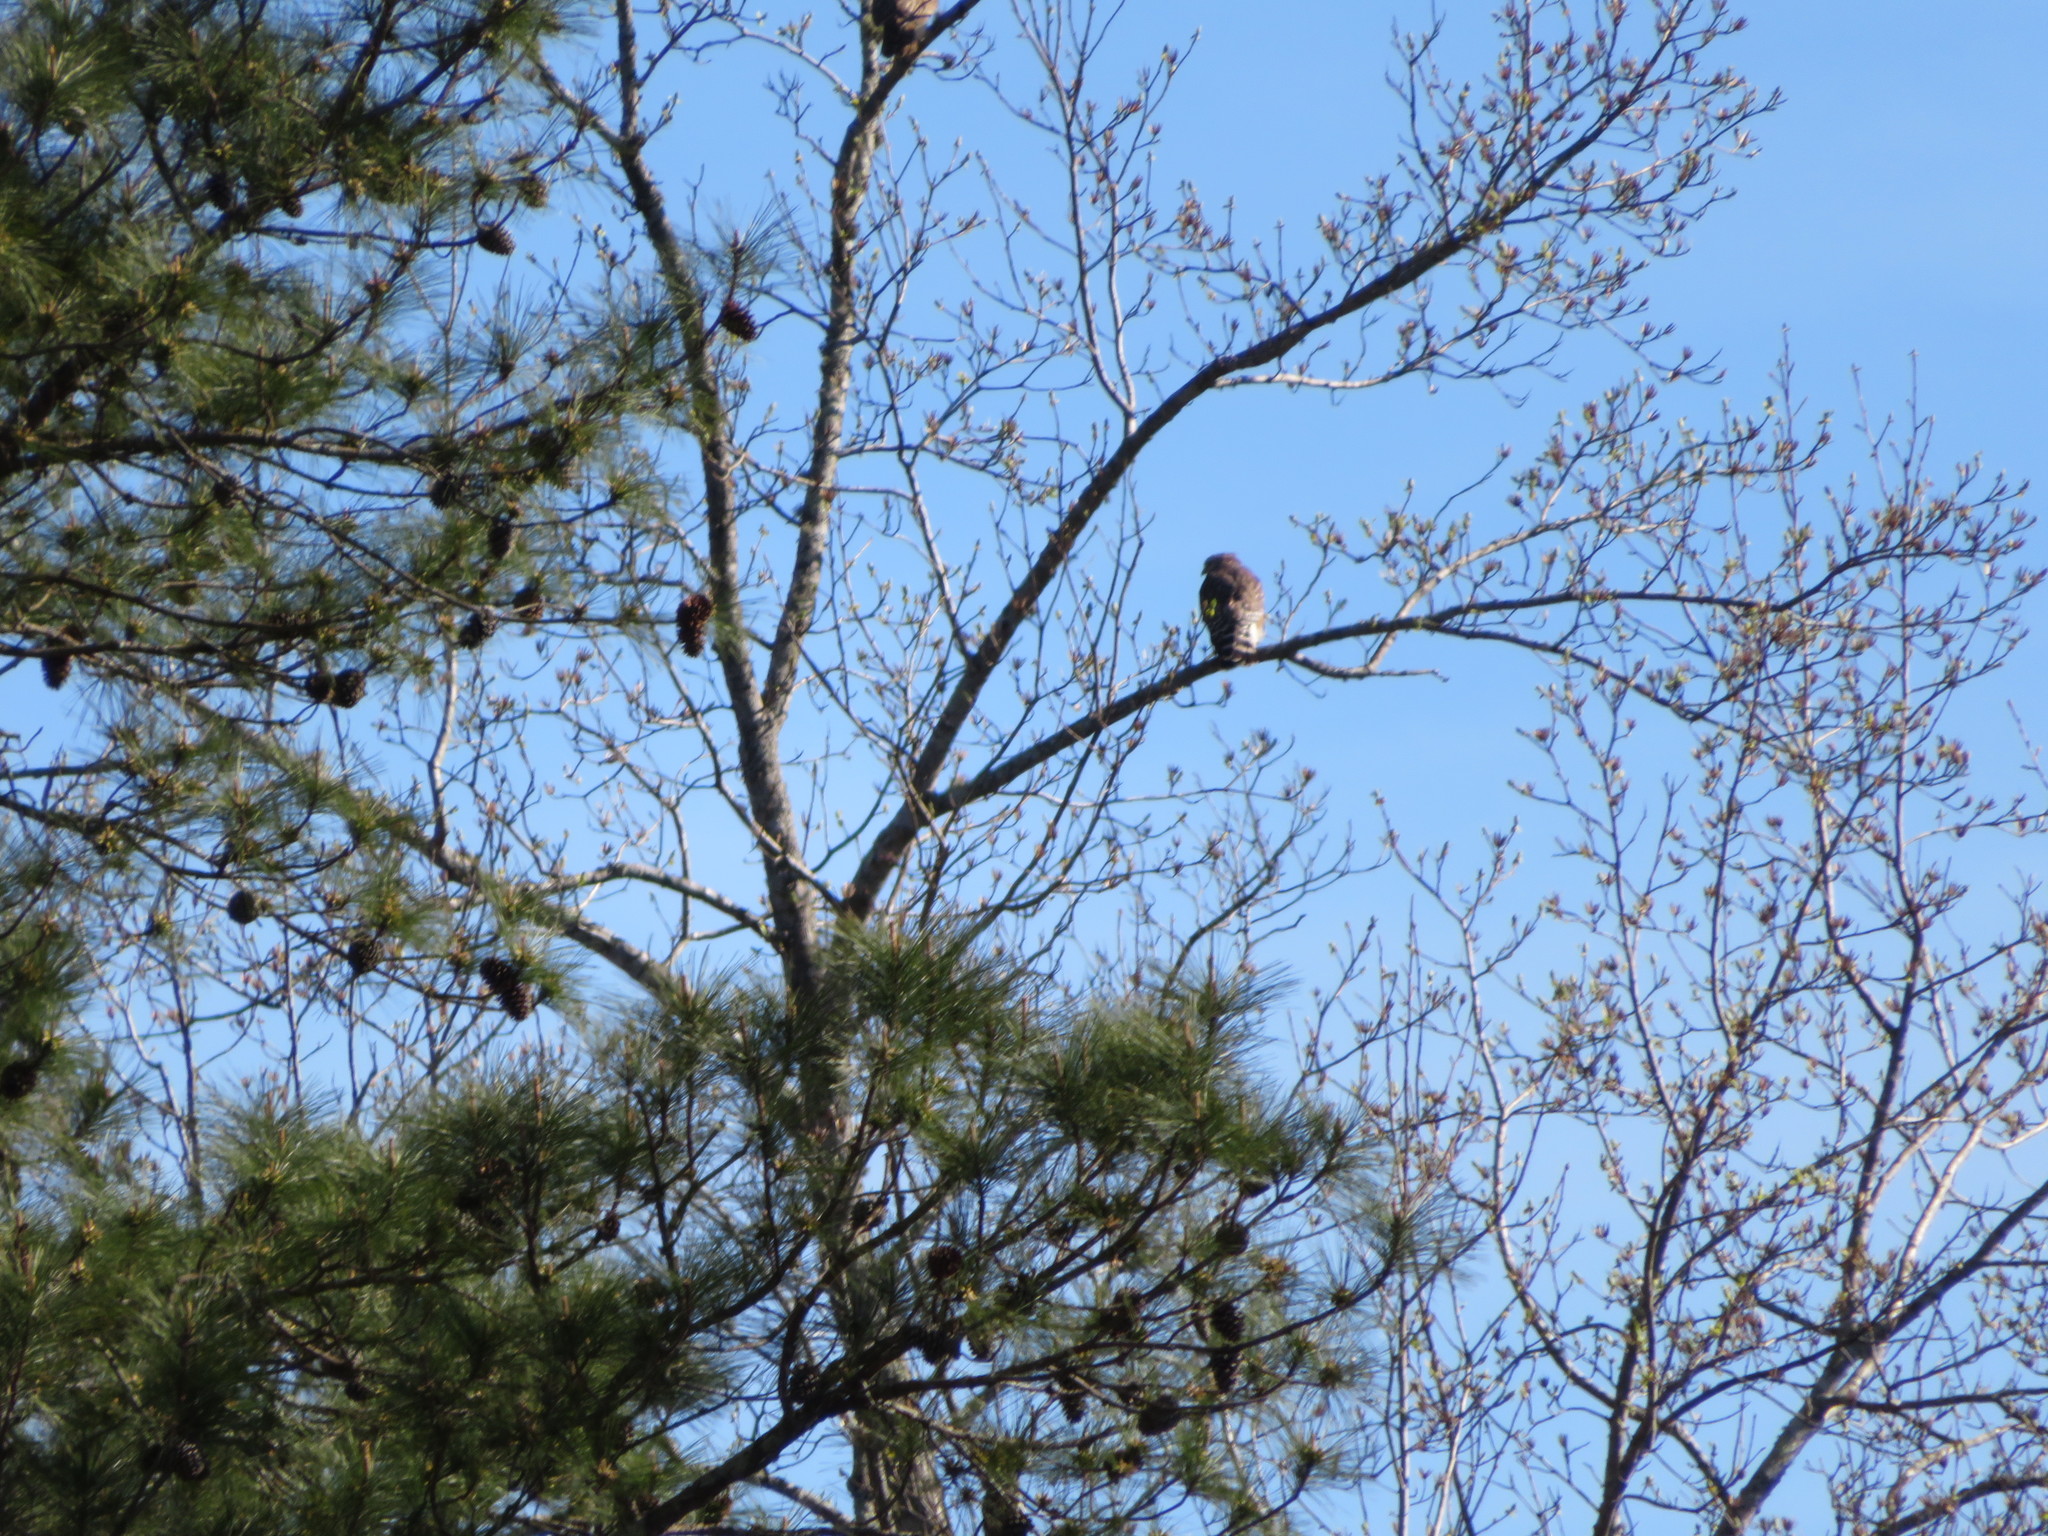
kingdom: Animalia
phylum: Chordata
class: Aves
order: Accipitriformes
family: Accipitridae
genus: Buteo
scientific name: Buteo lineatus
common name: Red-shouldered hawk
